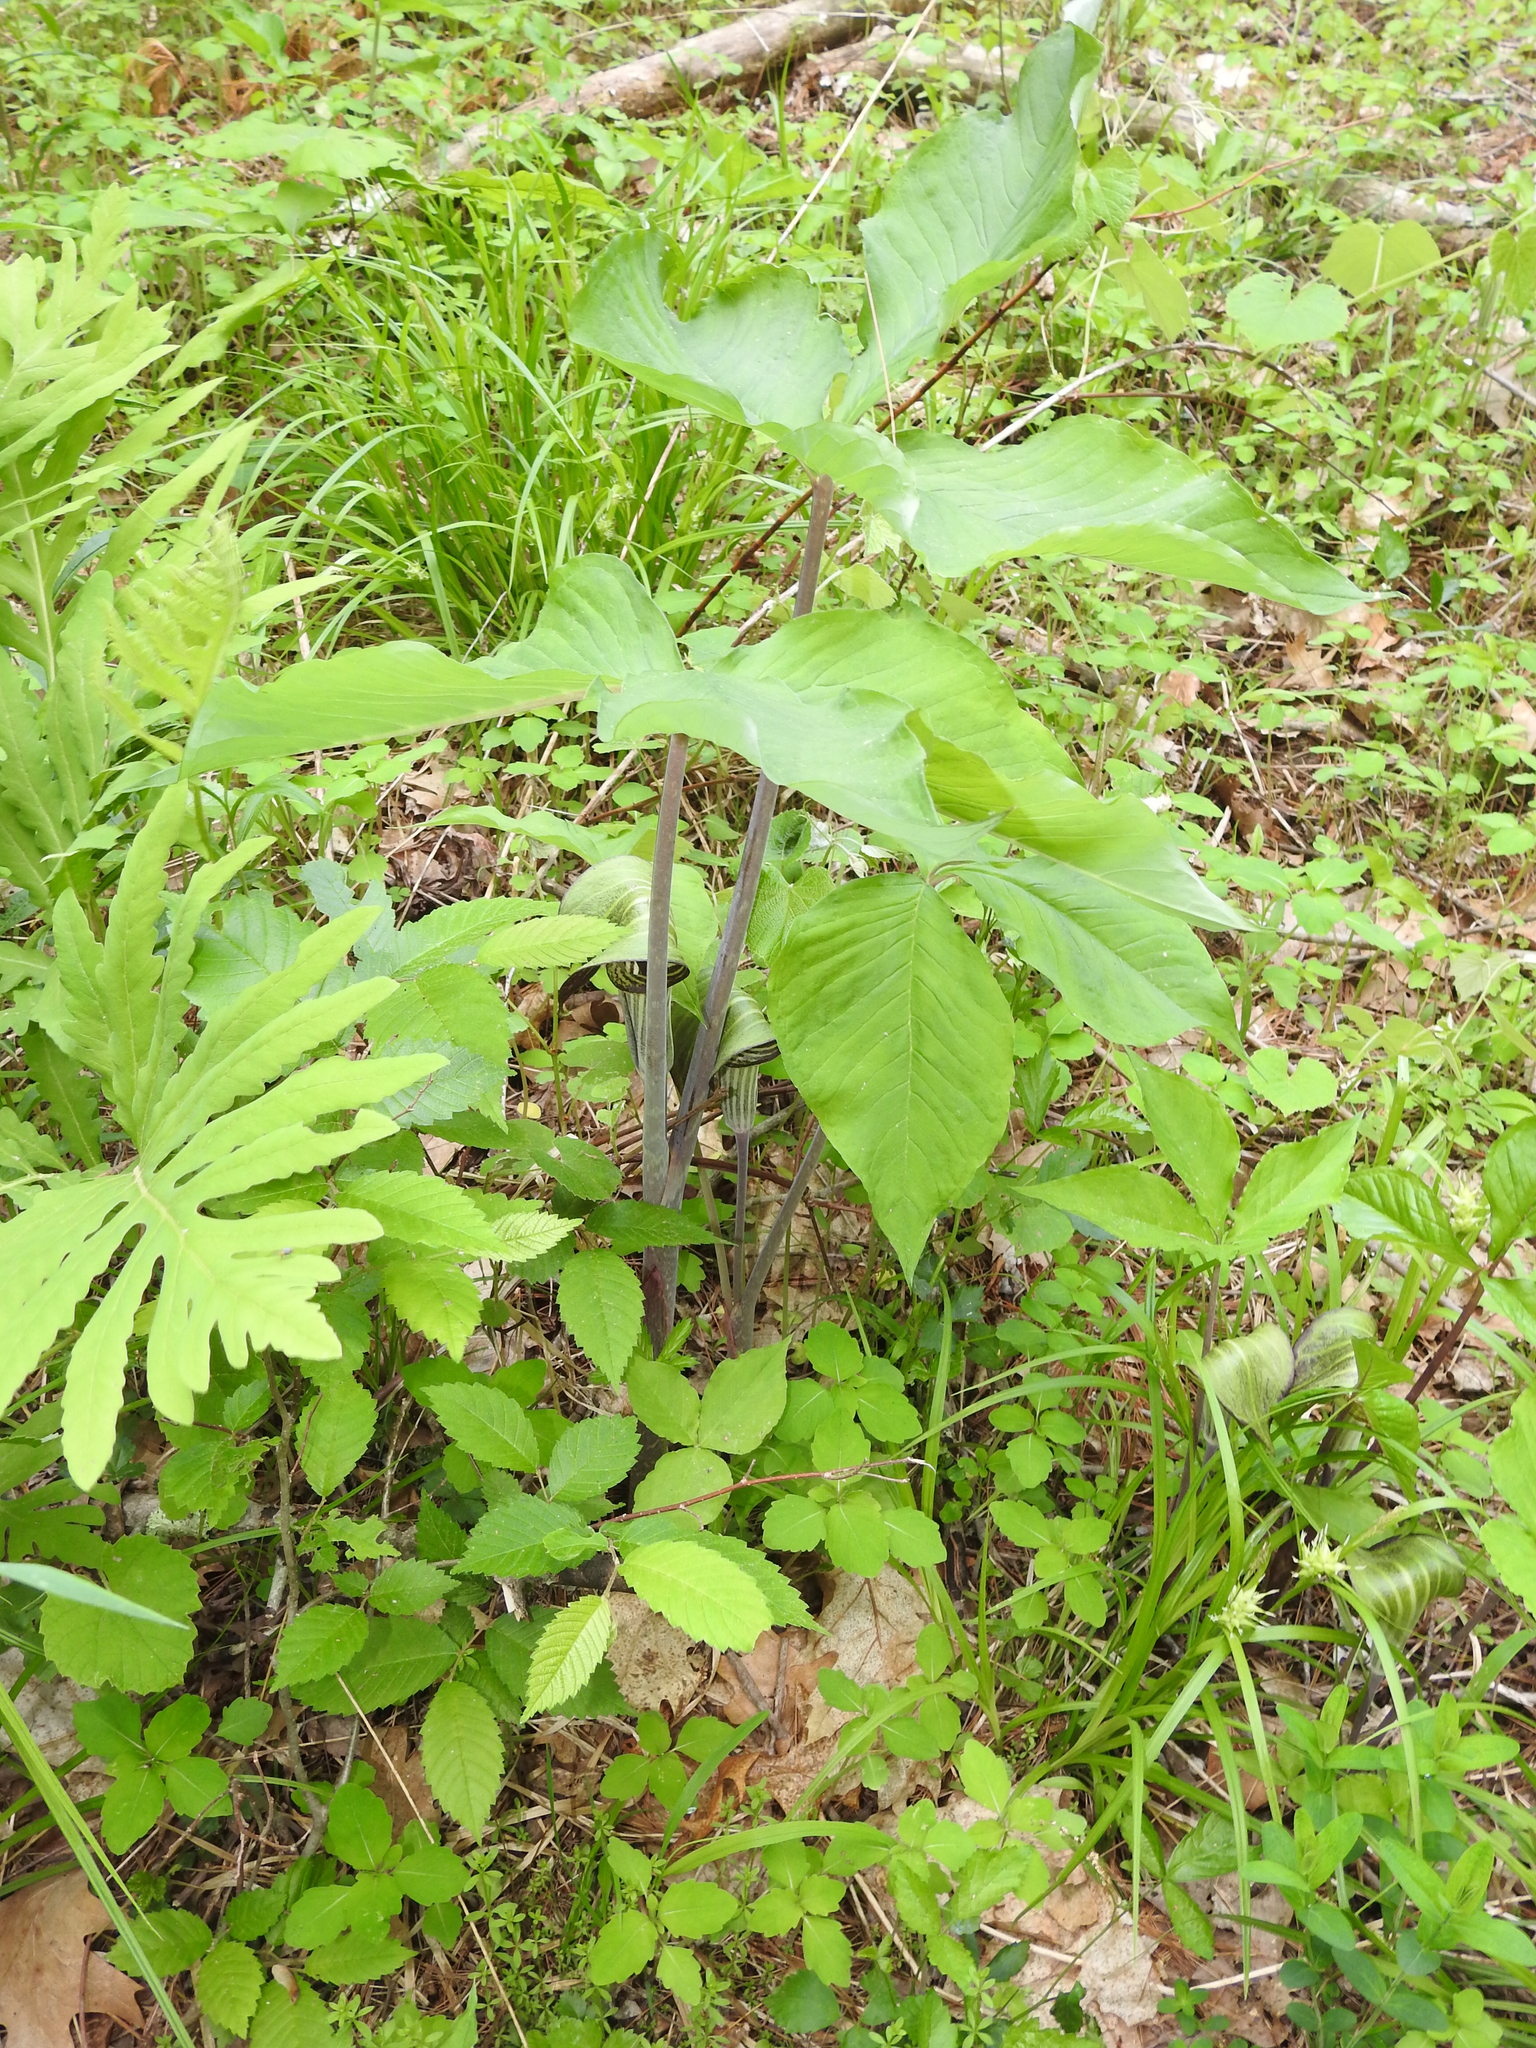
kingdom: Plantae
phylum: Tracheophyta
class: Liliopsida
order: Alismatales
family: Araceae
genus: Arisaema
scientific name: Arisaema triphyllum
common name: Jack-in-the-pulpit
